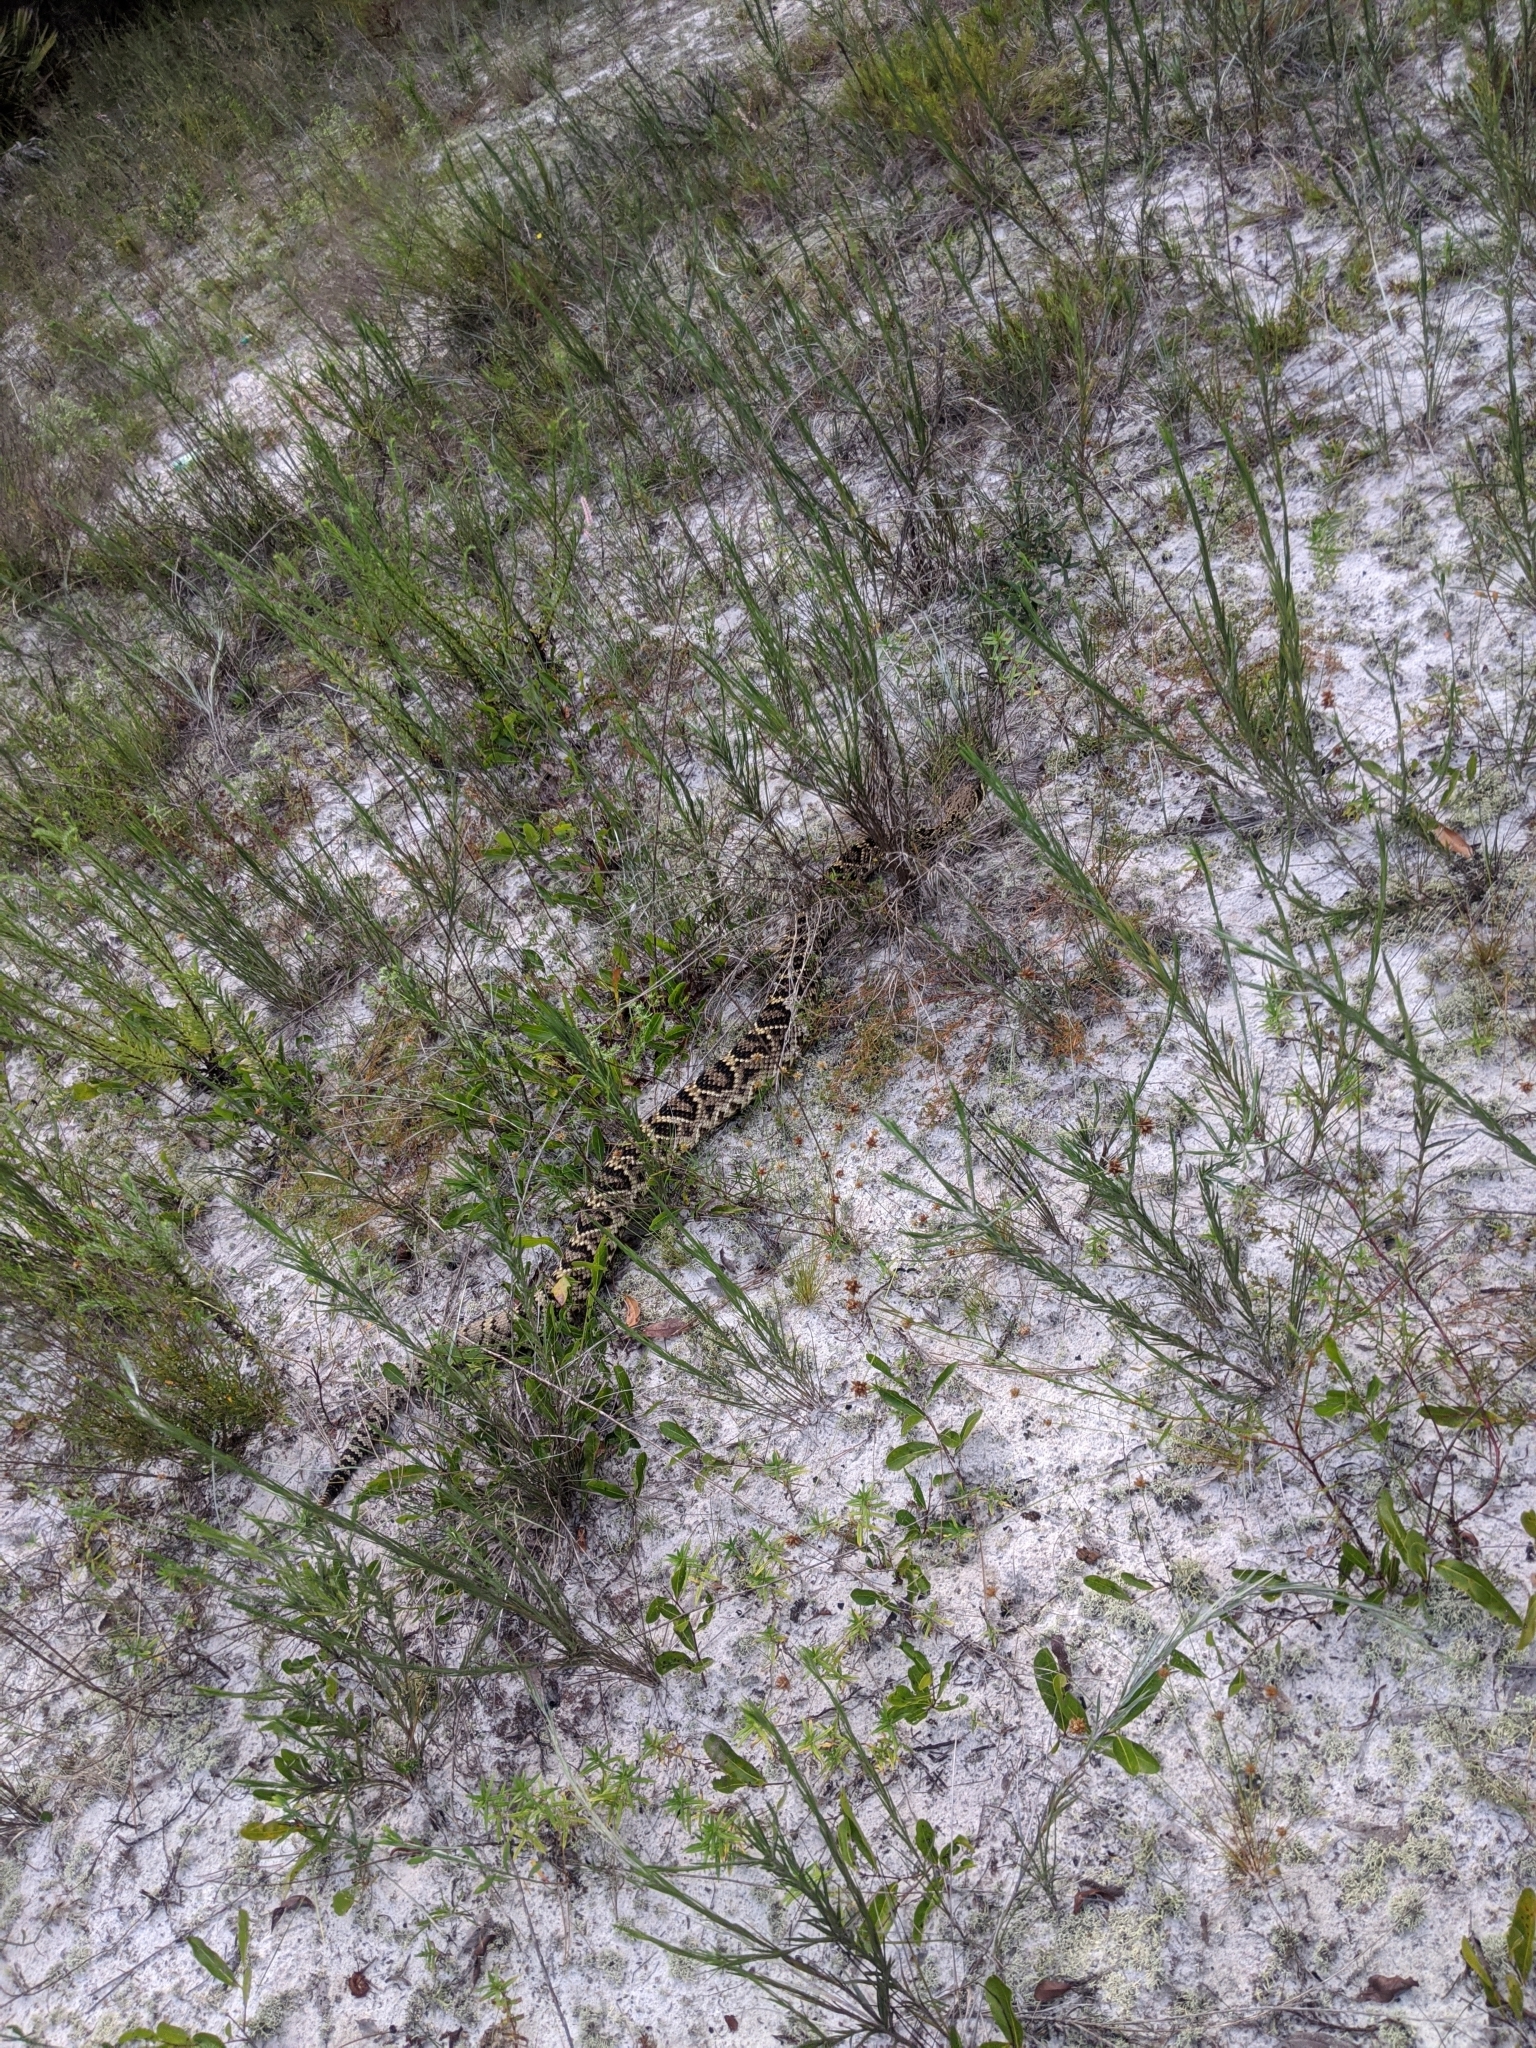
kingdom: Animalia
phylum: Chordata
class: Squamata
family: Viperidae
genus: Crotalus
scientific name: Crotalus adamanteus
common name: Eastern diamondback rattlesnake
